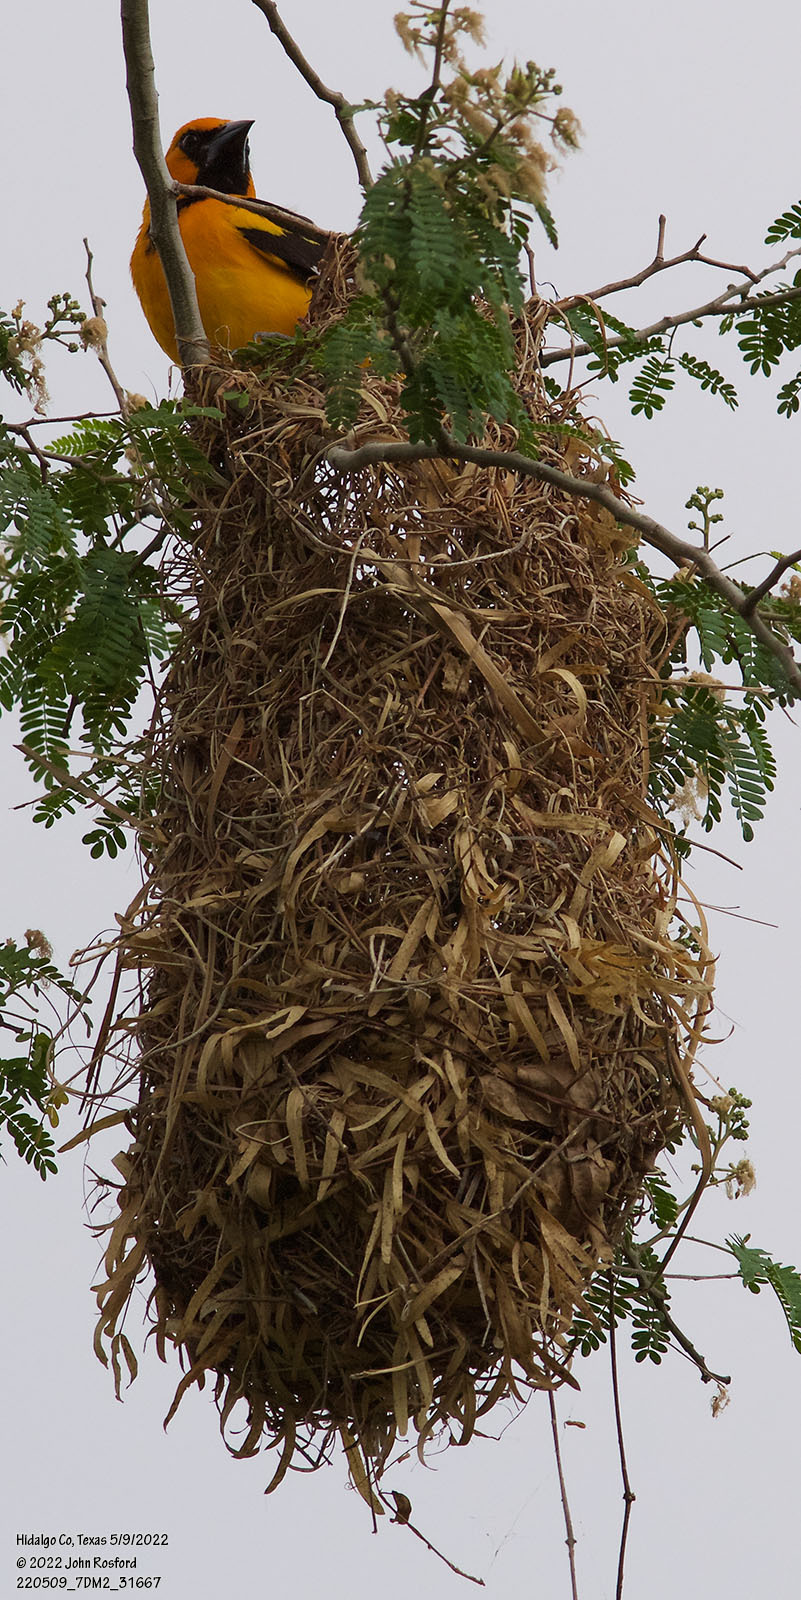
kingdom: Animalia
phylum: Chordata
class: Aves
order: Passeriformes
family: Icteridae
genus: Icterus
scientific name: Icterus gularis
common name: Altamira oriole
